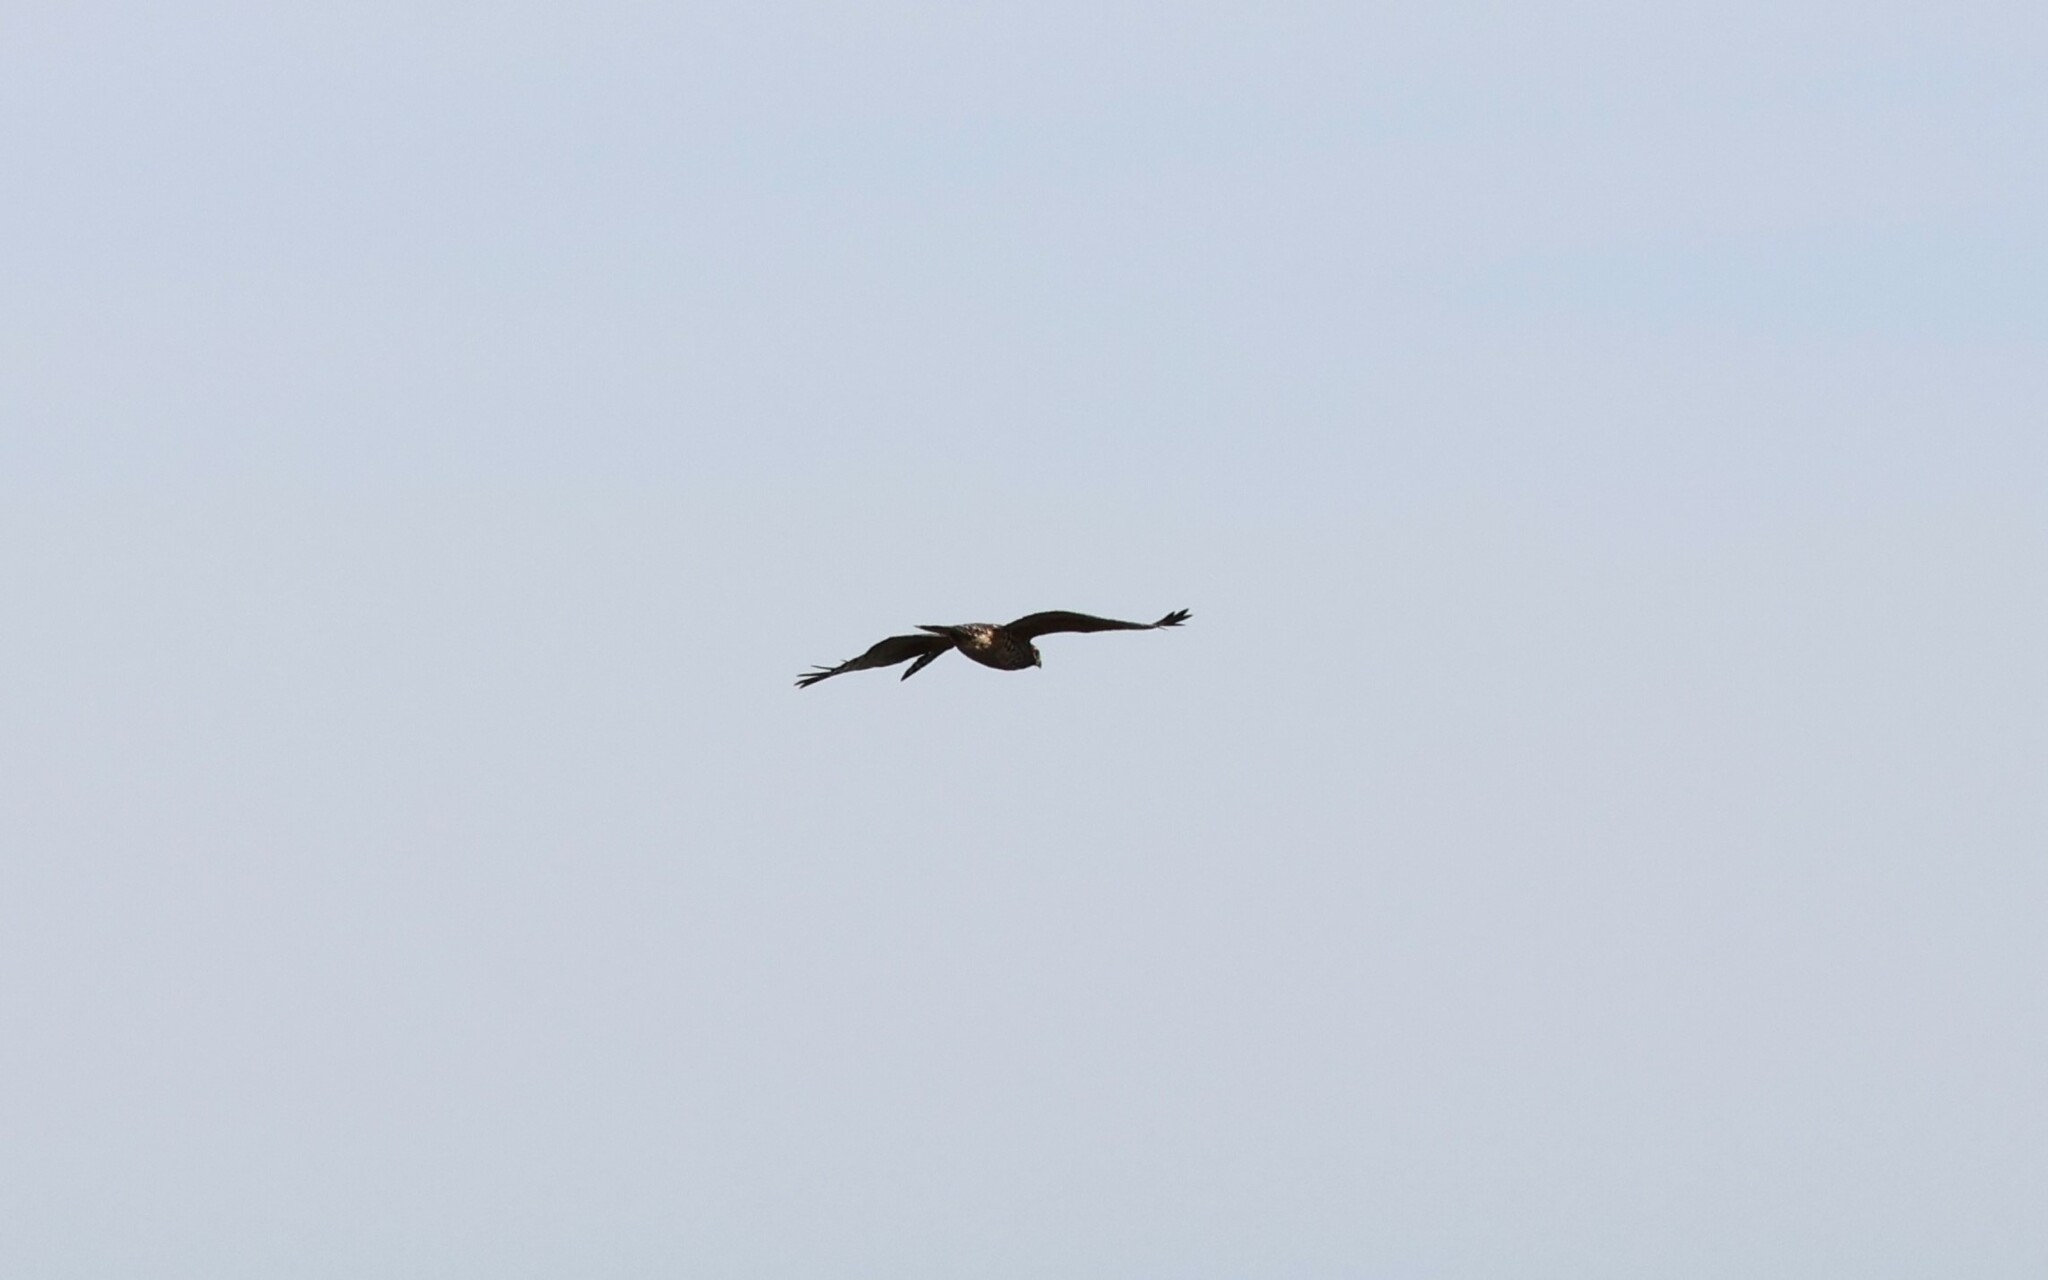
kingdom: Animalia
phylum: Chordata
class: Aves
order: Accipitriformes
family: Accipitridae
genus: Buteo
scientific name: Buteo lineatus
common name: Red-shouldered hawk
